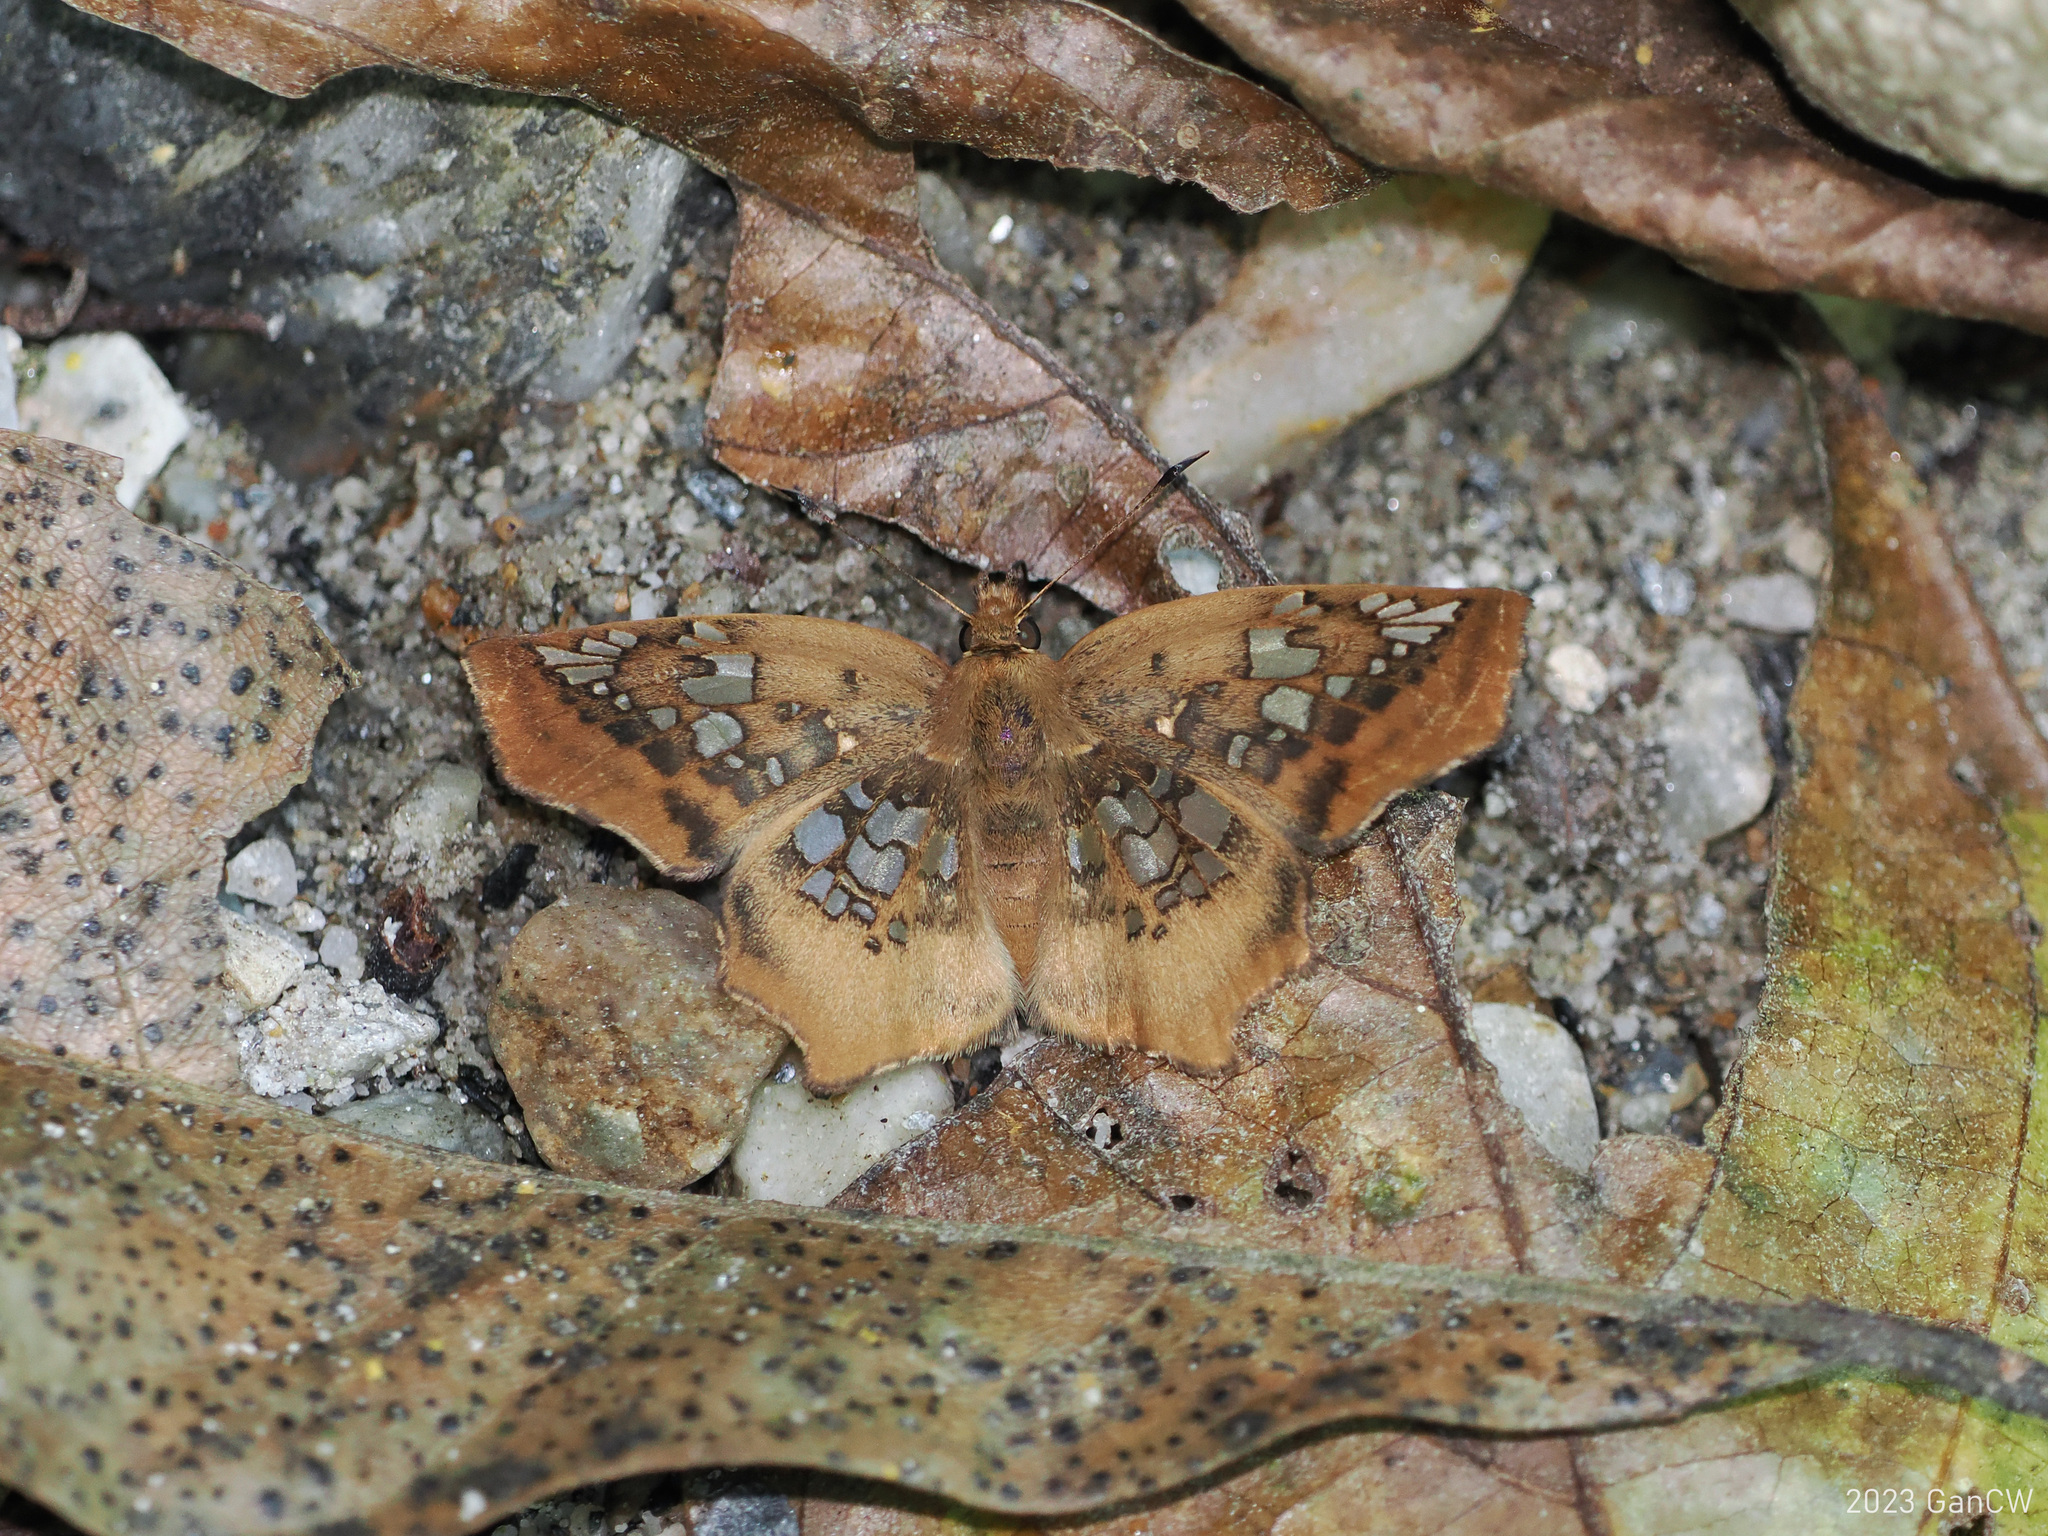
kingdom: Animalia
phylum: Arthropoda
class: Insecta
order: Lepidoptera
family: Hesperiidae
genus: Ctenoptilum
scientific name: Ctenoptilum vasava
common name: Tawny angle
